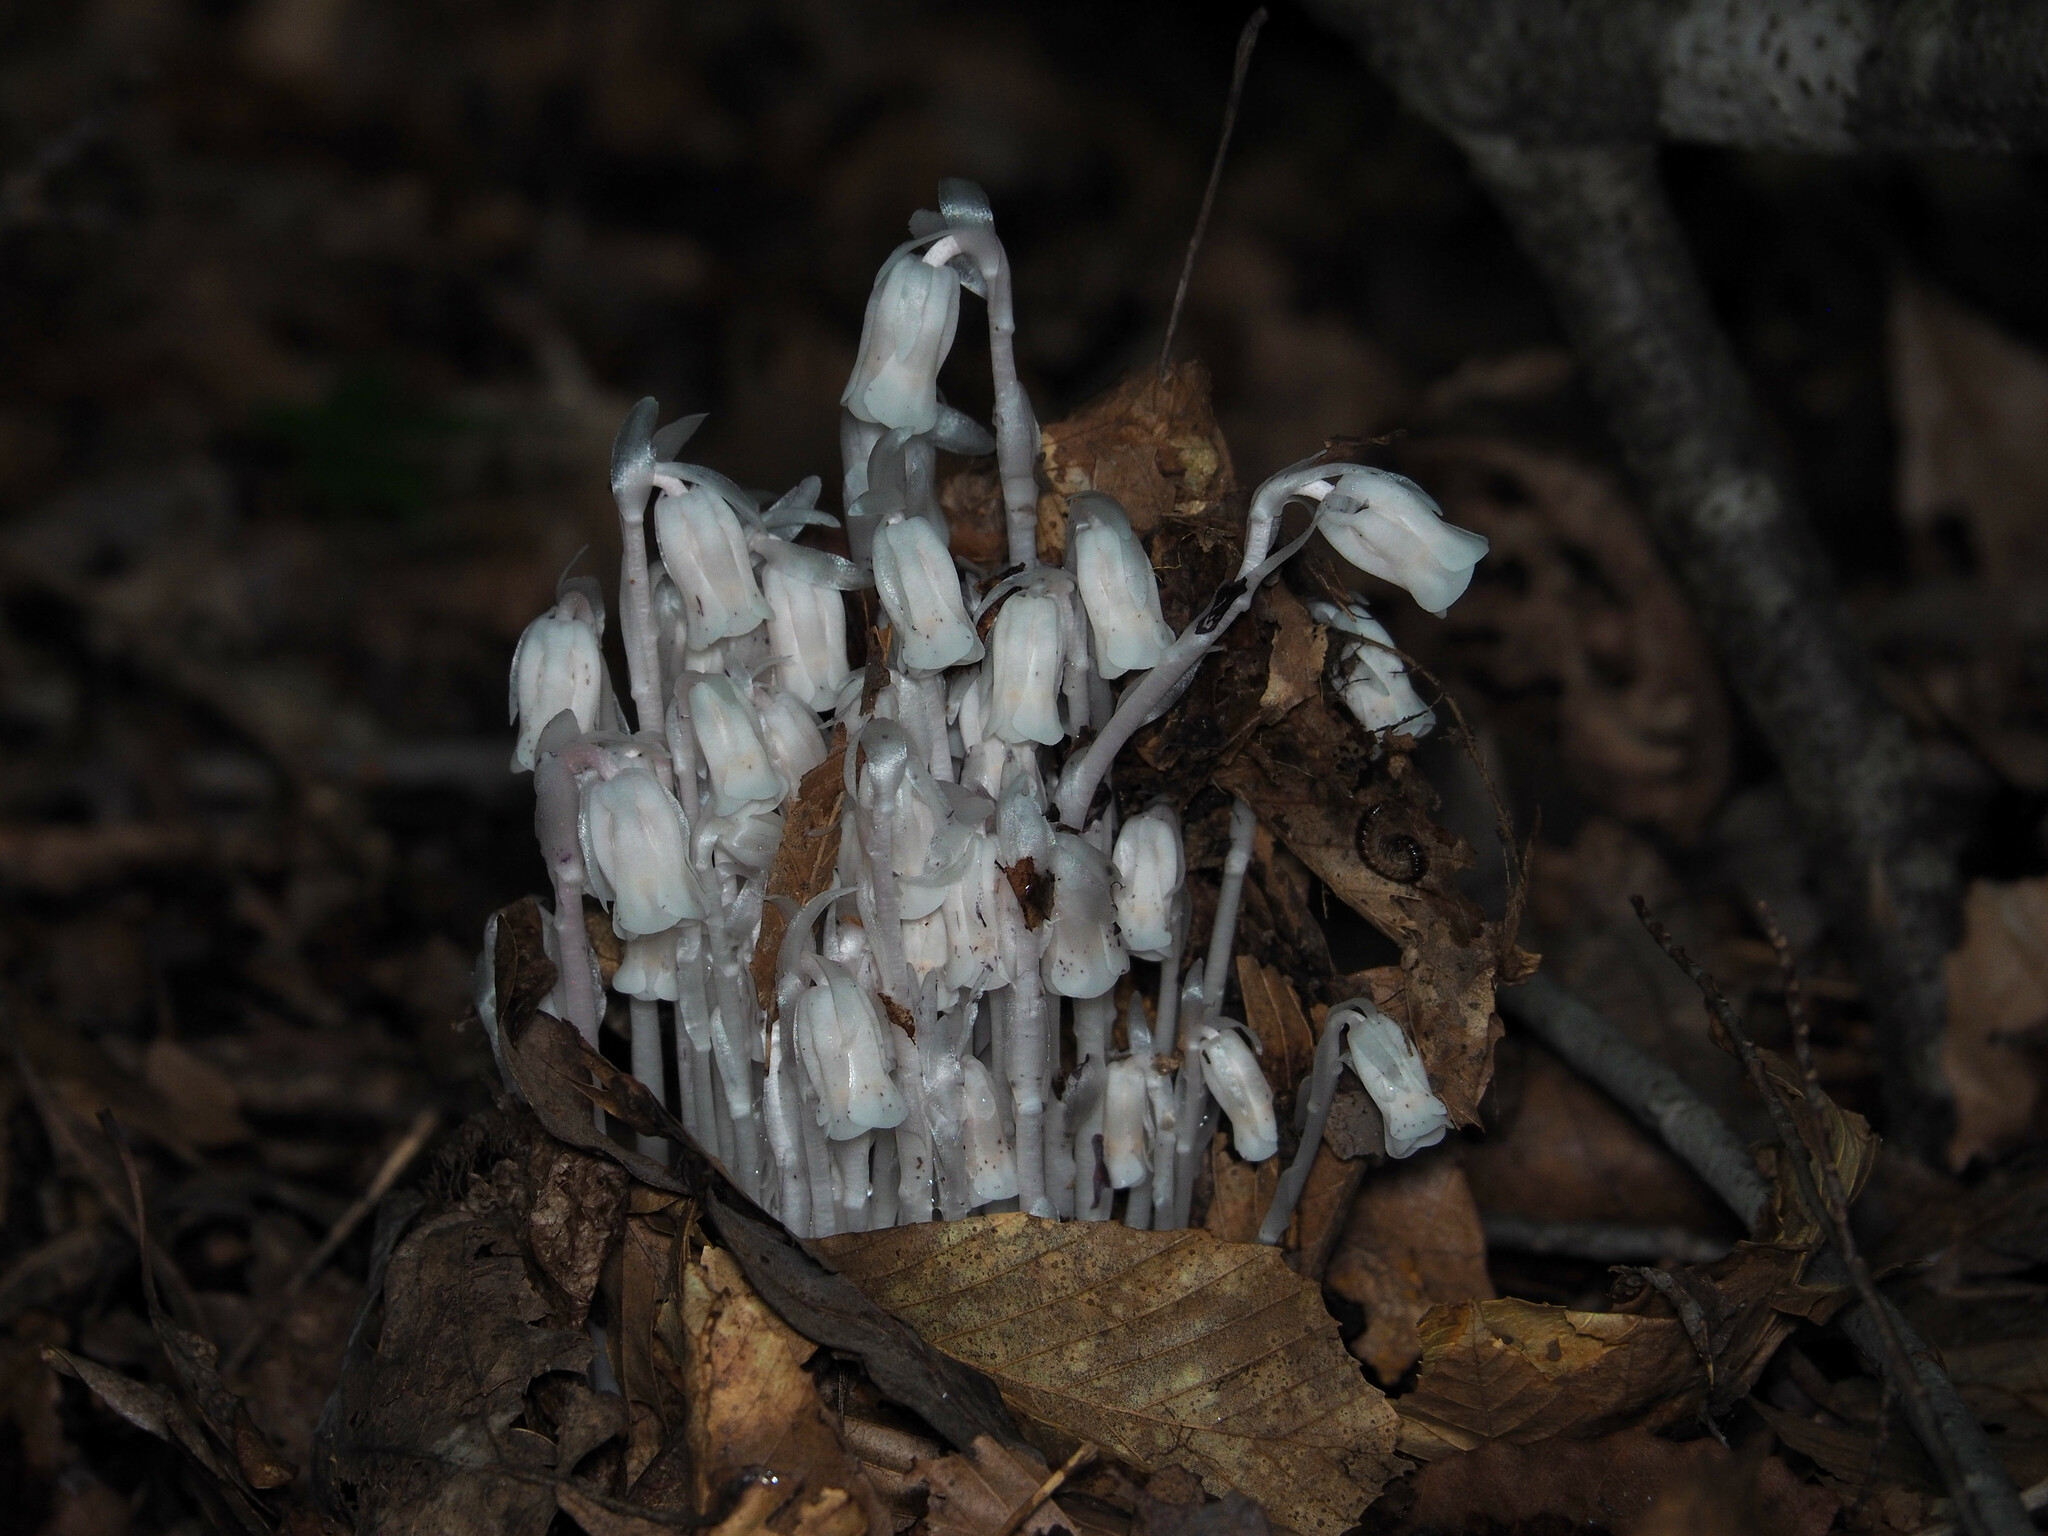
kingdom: Plantae
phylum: Tracheophyta
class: Magnoliopsida
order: Ericales
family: Ericaceae
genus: Monotropa
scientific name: Monotropa uniflora
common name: Convulsion root
